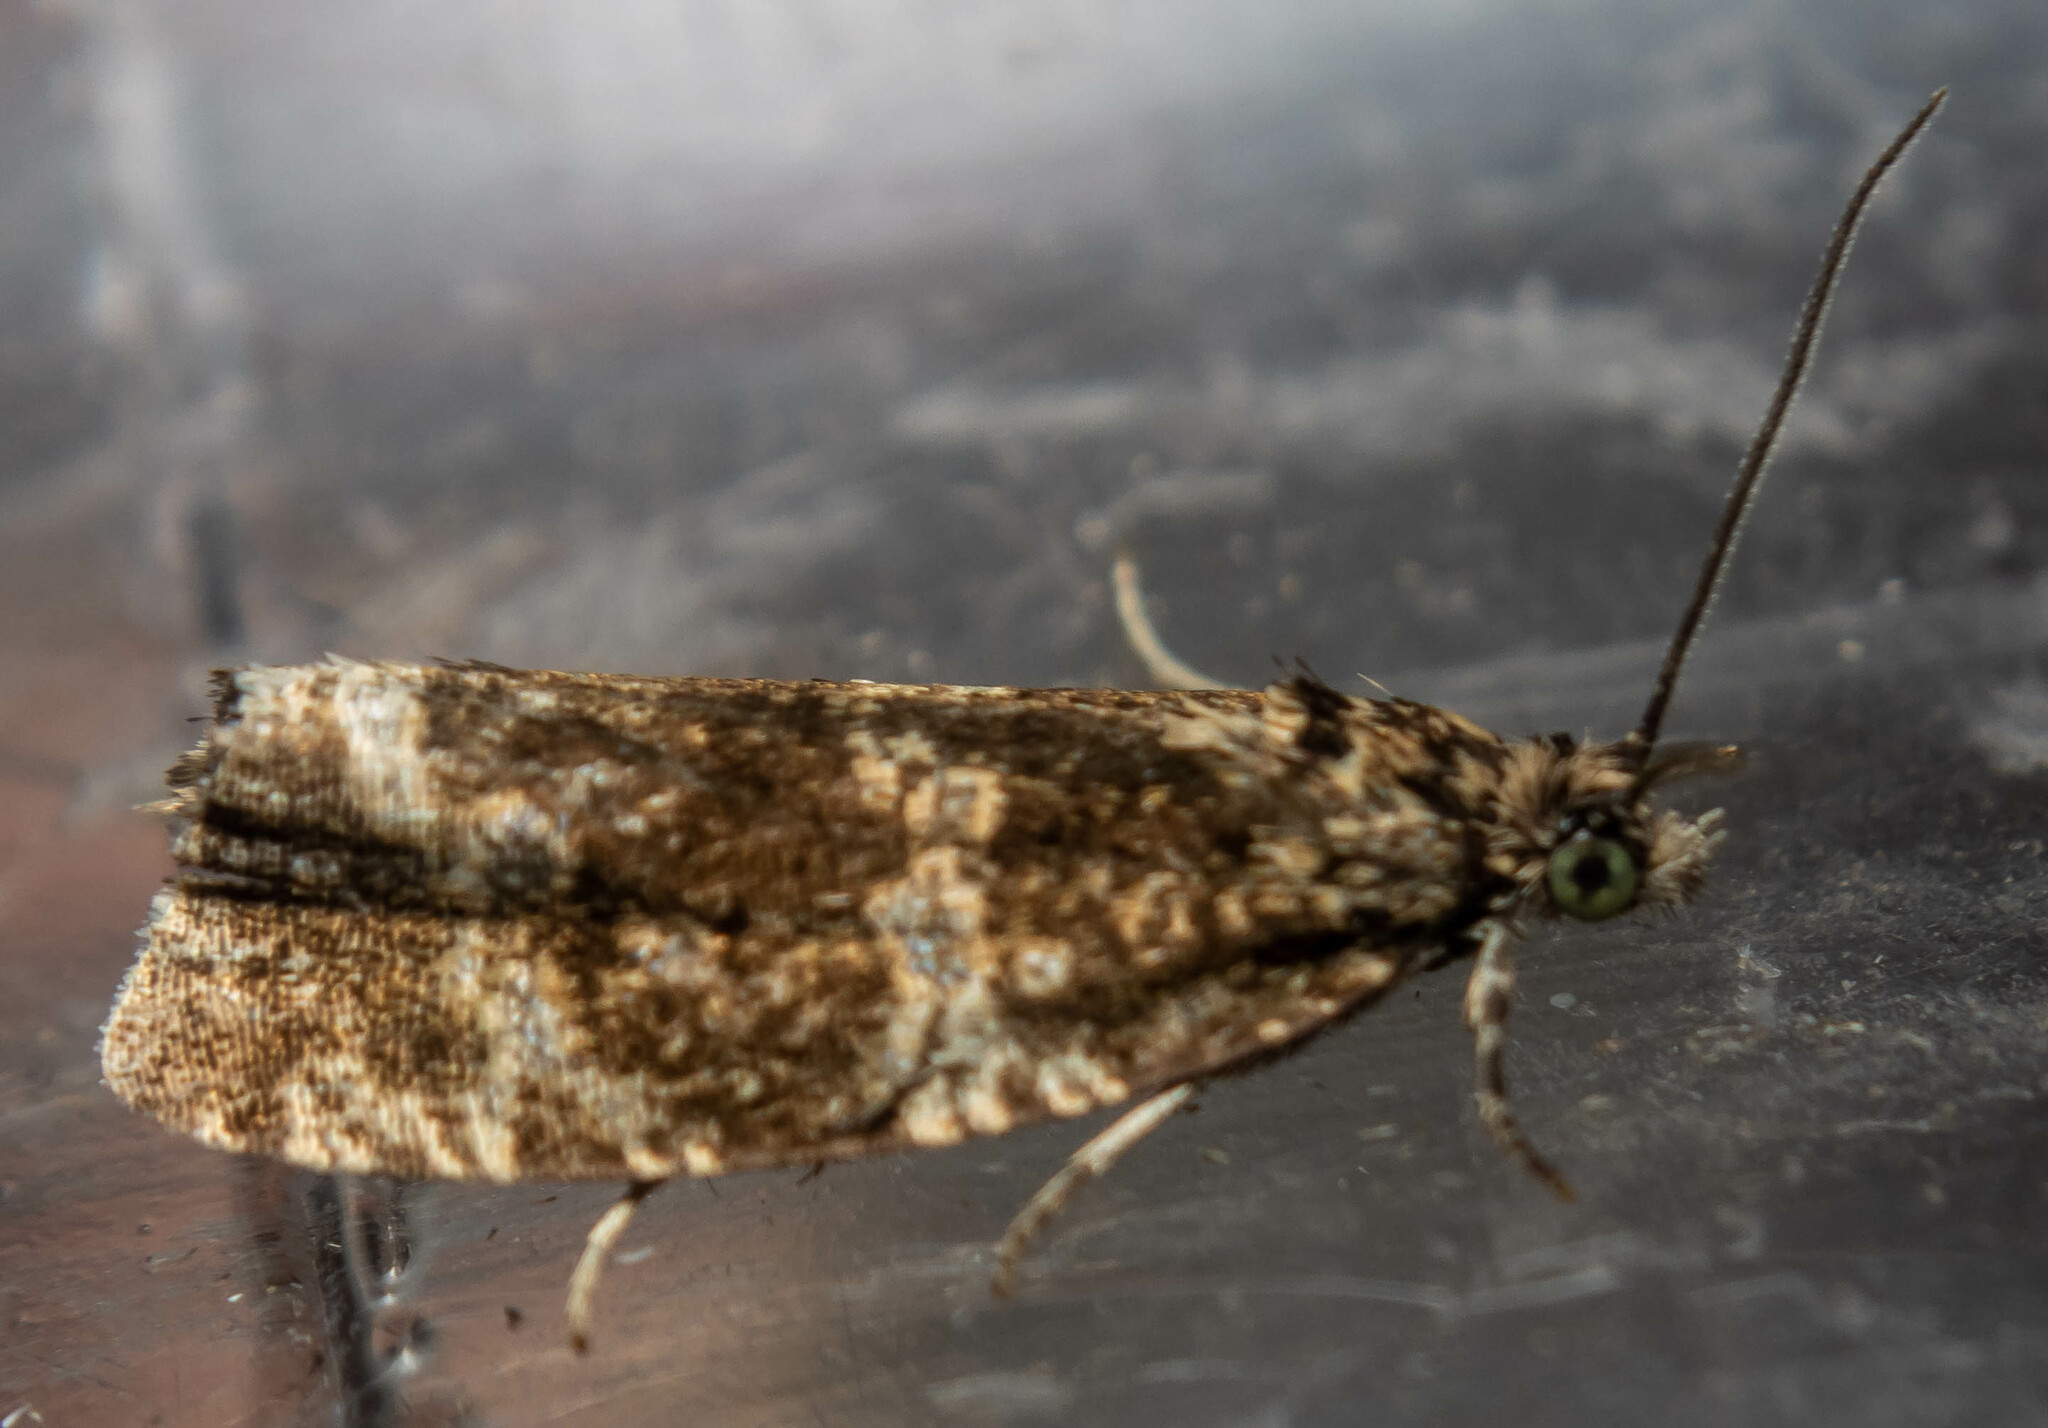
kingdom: Animalia
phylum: Arthropoda
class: Insecta
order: Lepidoptera
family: Tortricidae
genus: Syricoris
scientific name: Syricoris lacunana
